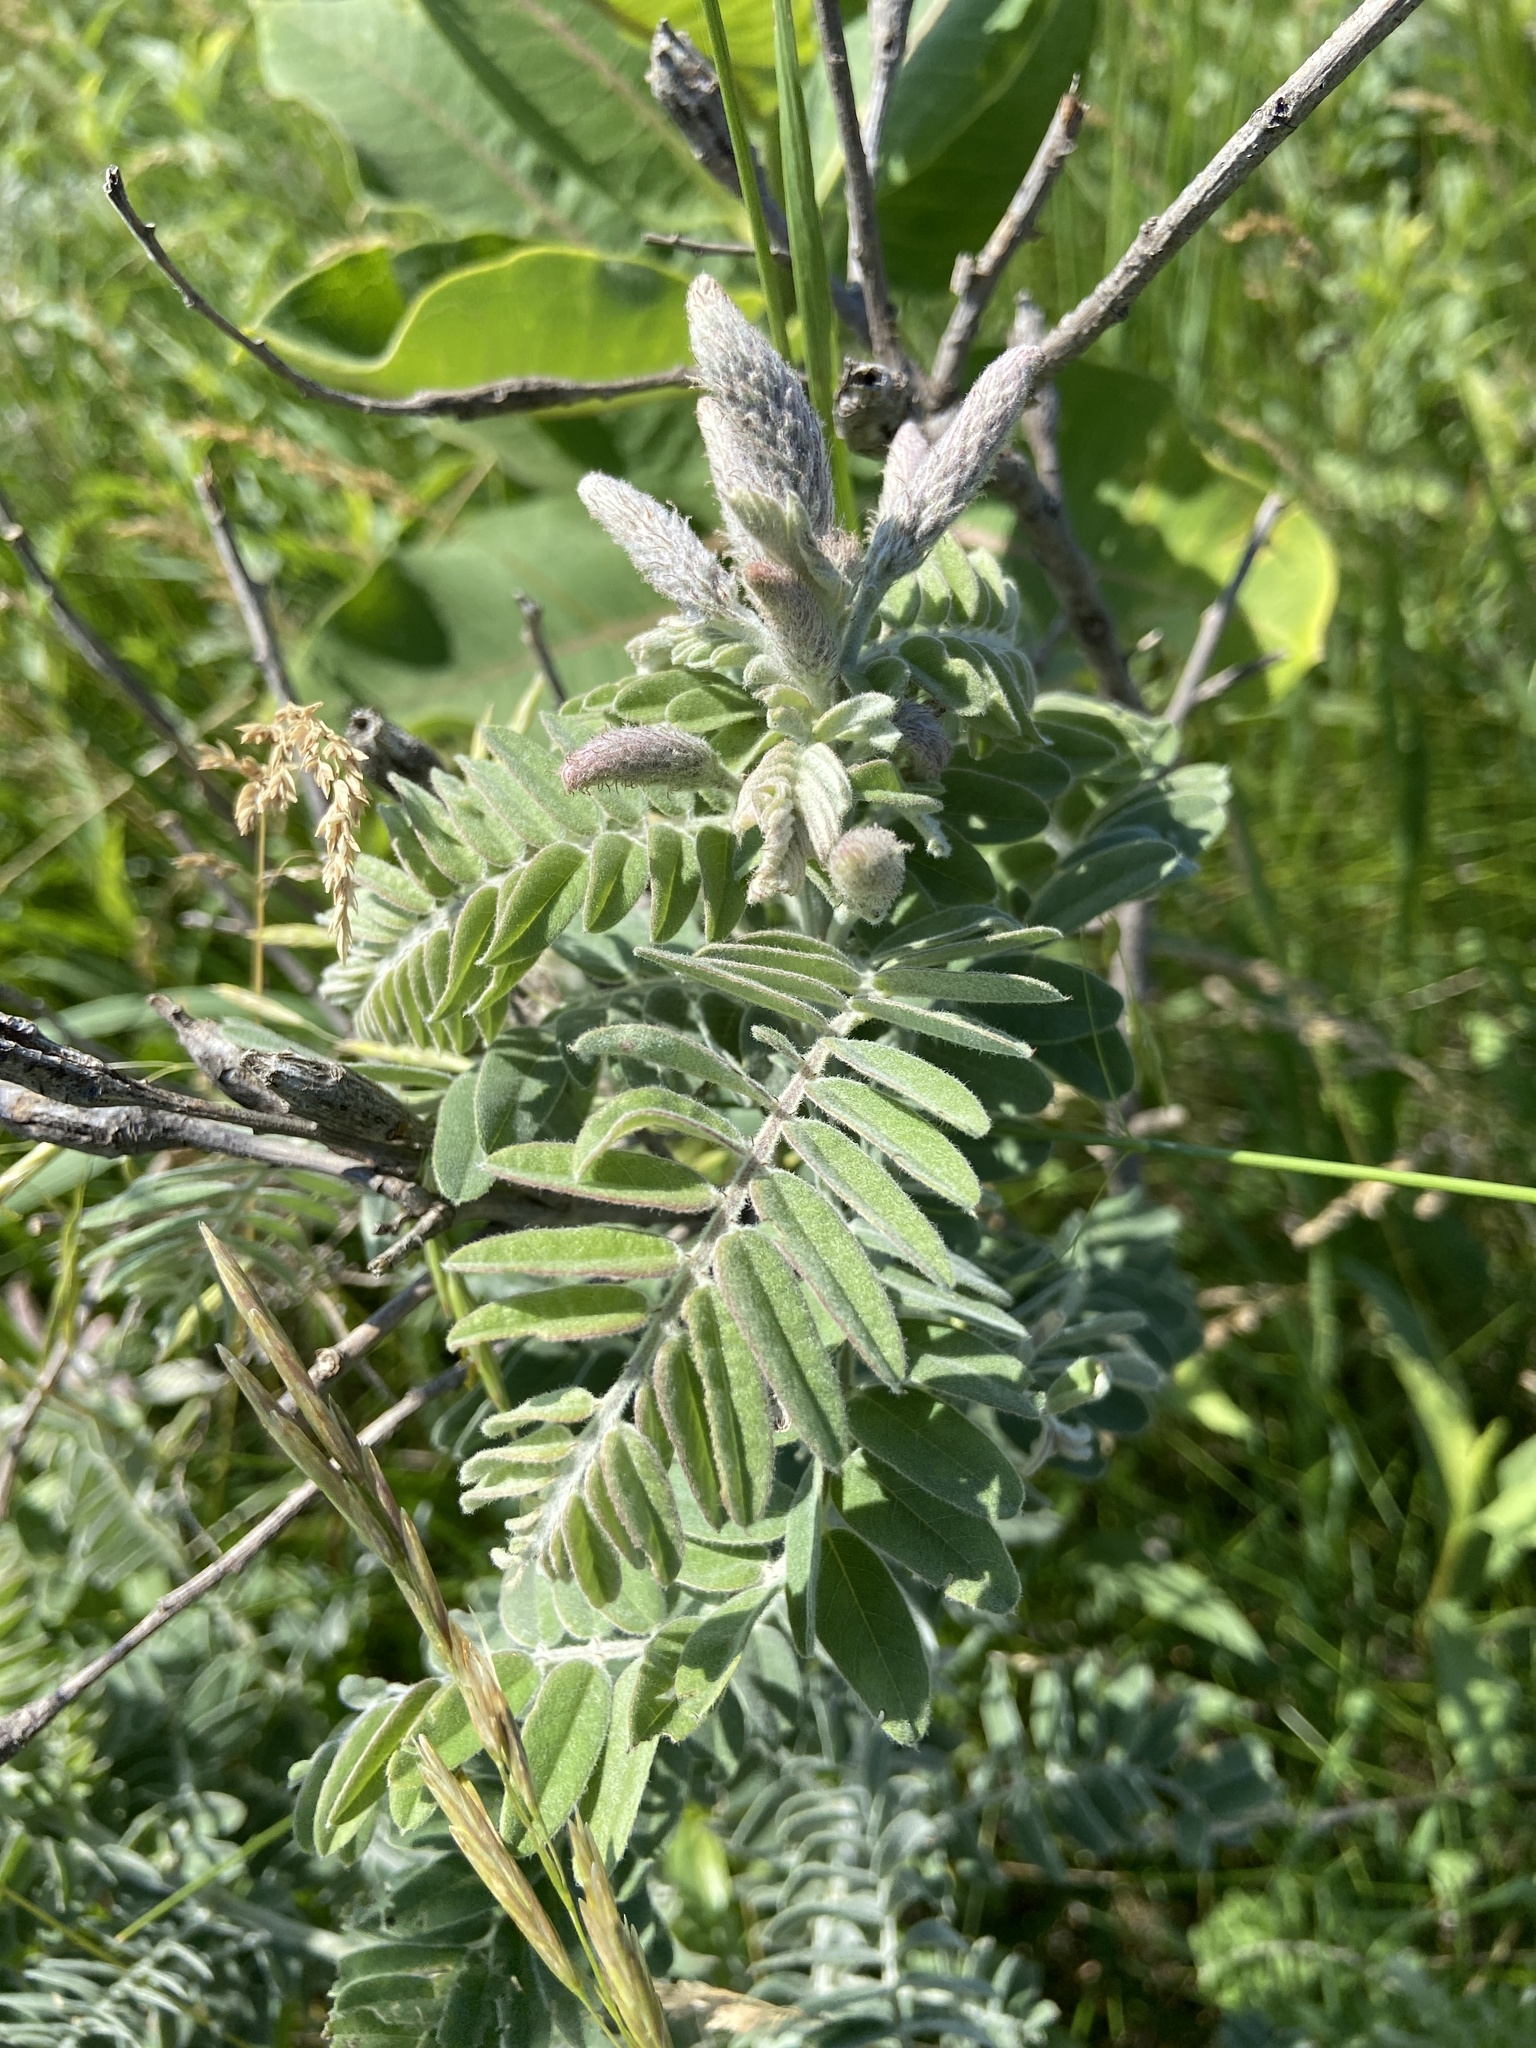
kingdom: Plantae
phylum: Tracheophyta
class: Magnoliopsida
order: Fabales
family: Fabaceae
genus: Amorpha
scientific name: Amorpha canescens
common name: Leadplant
